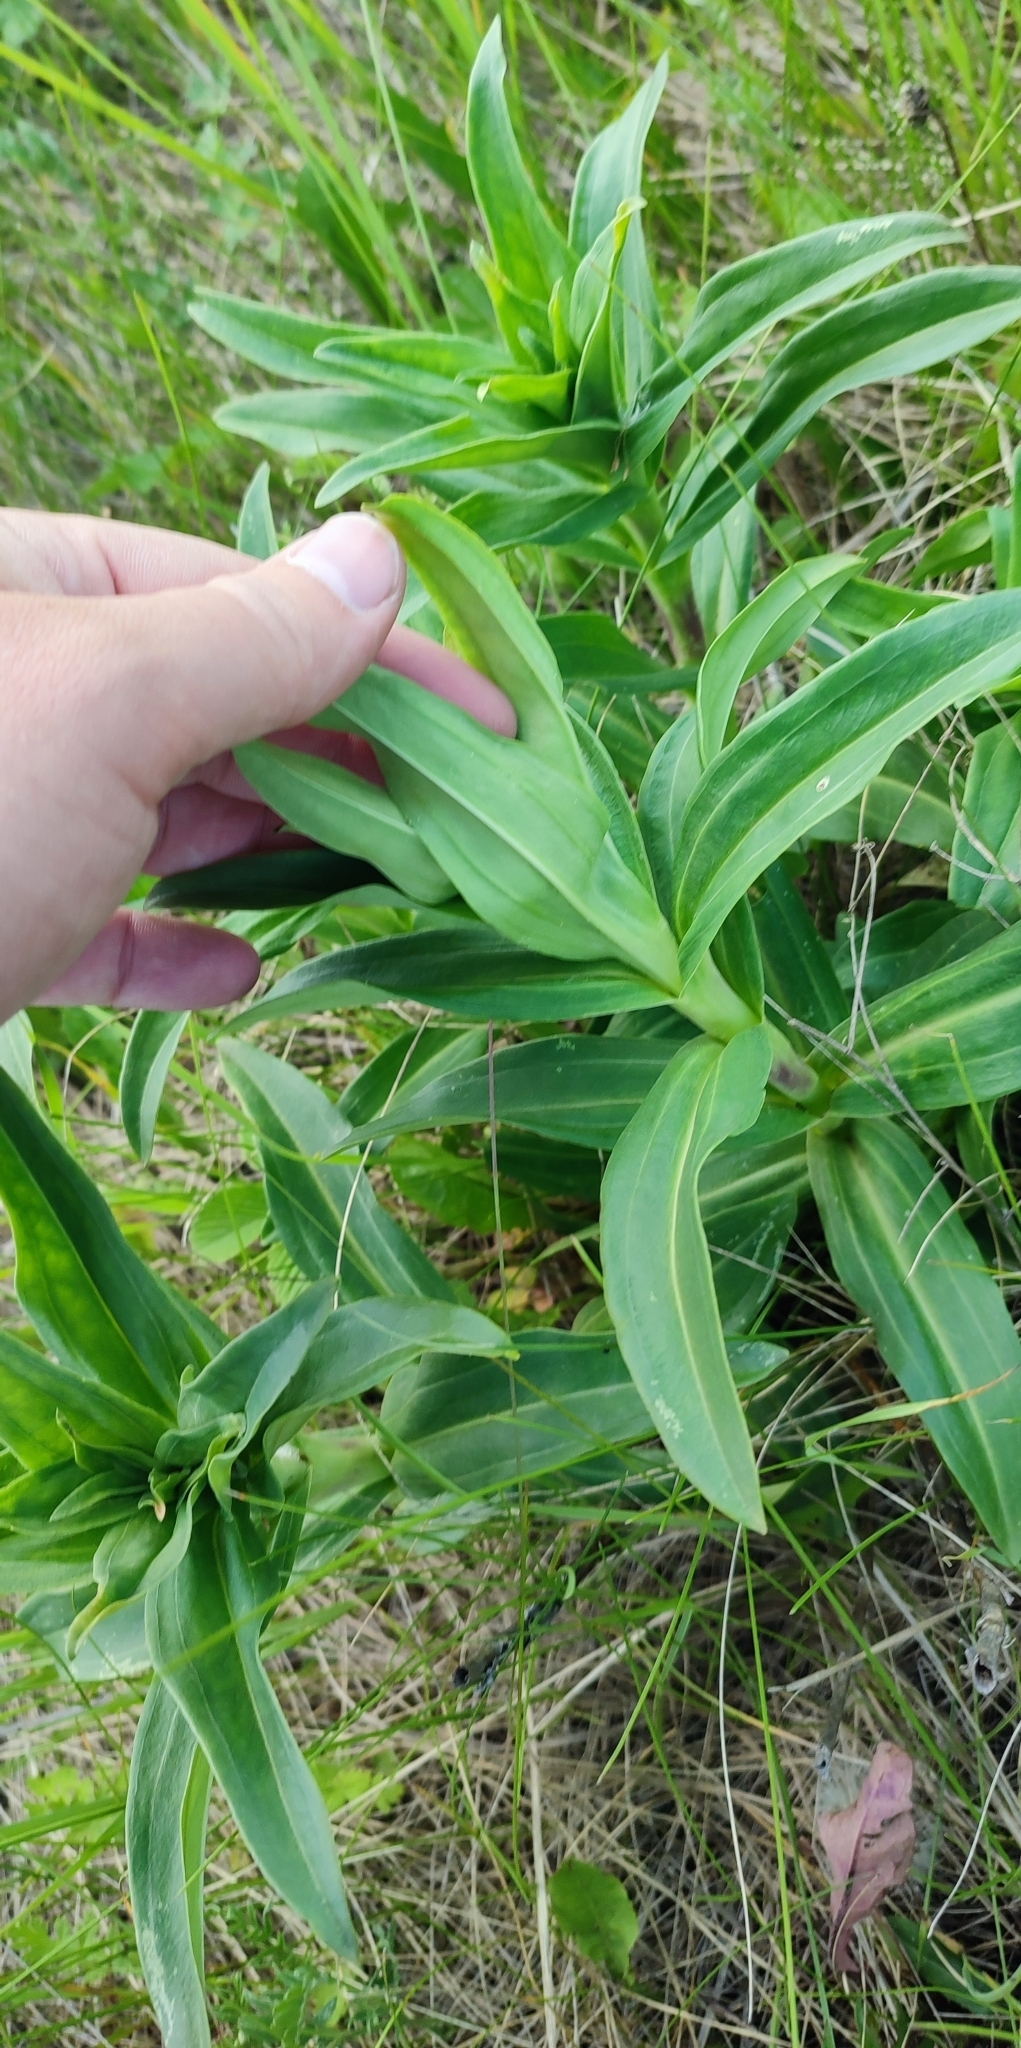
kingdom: Plantae
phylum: Tracheophyta
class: Magnoliopsida
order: Gentianales
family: Gentianaceae
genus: Gentiana
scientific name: Gentiana cruciata
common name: Cross gentian
